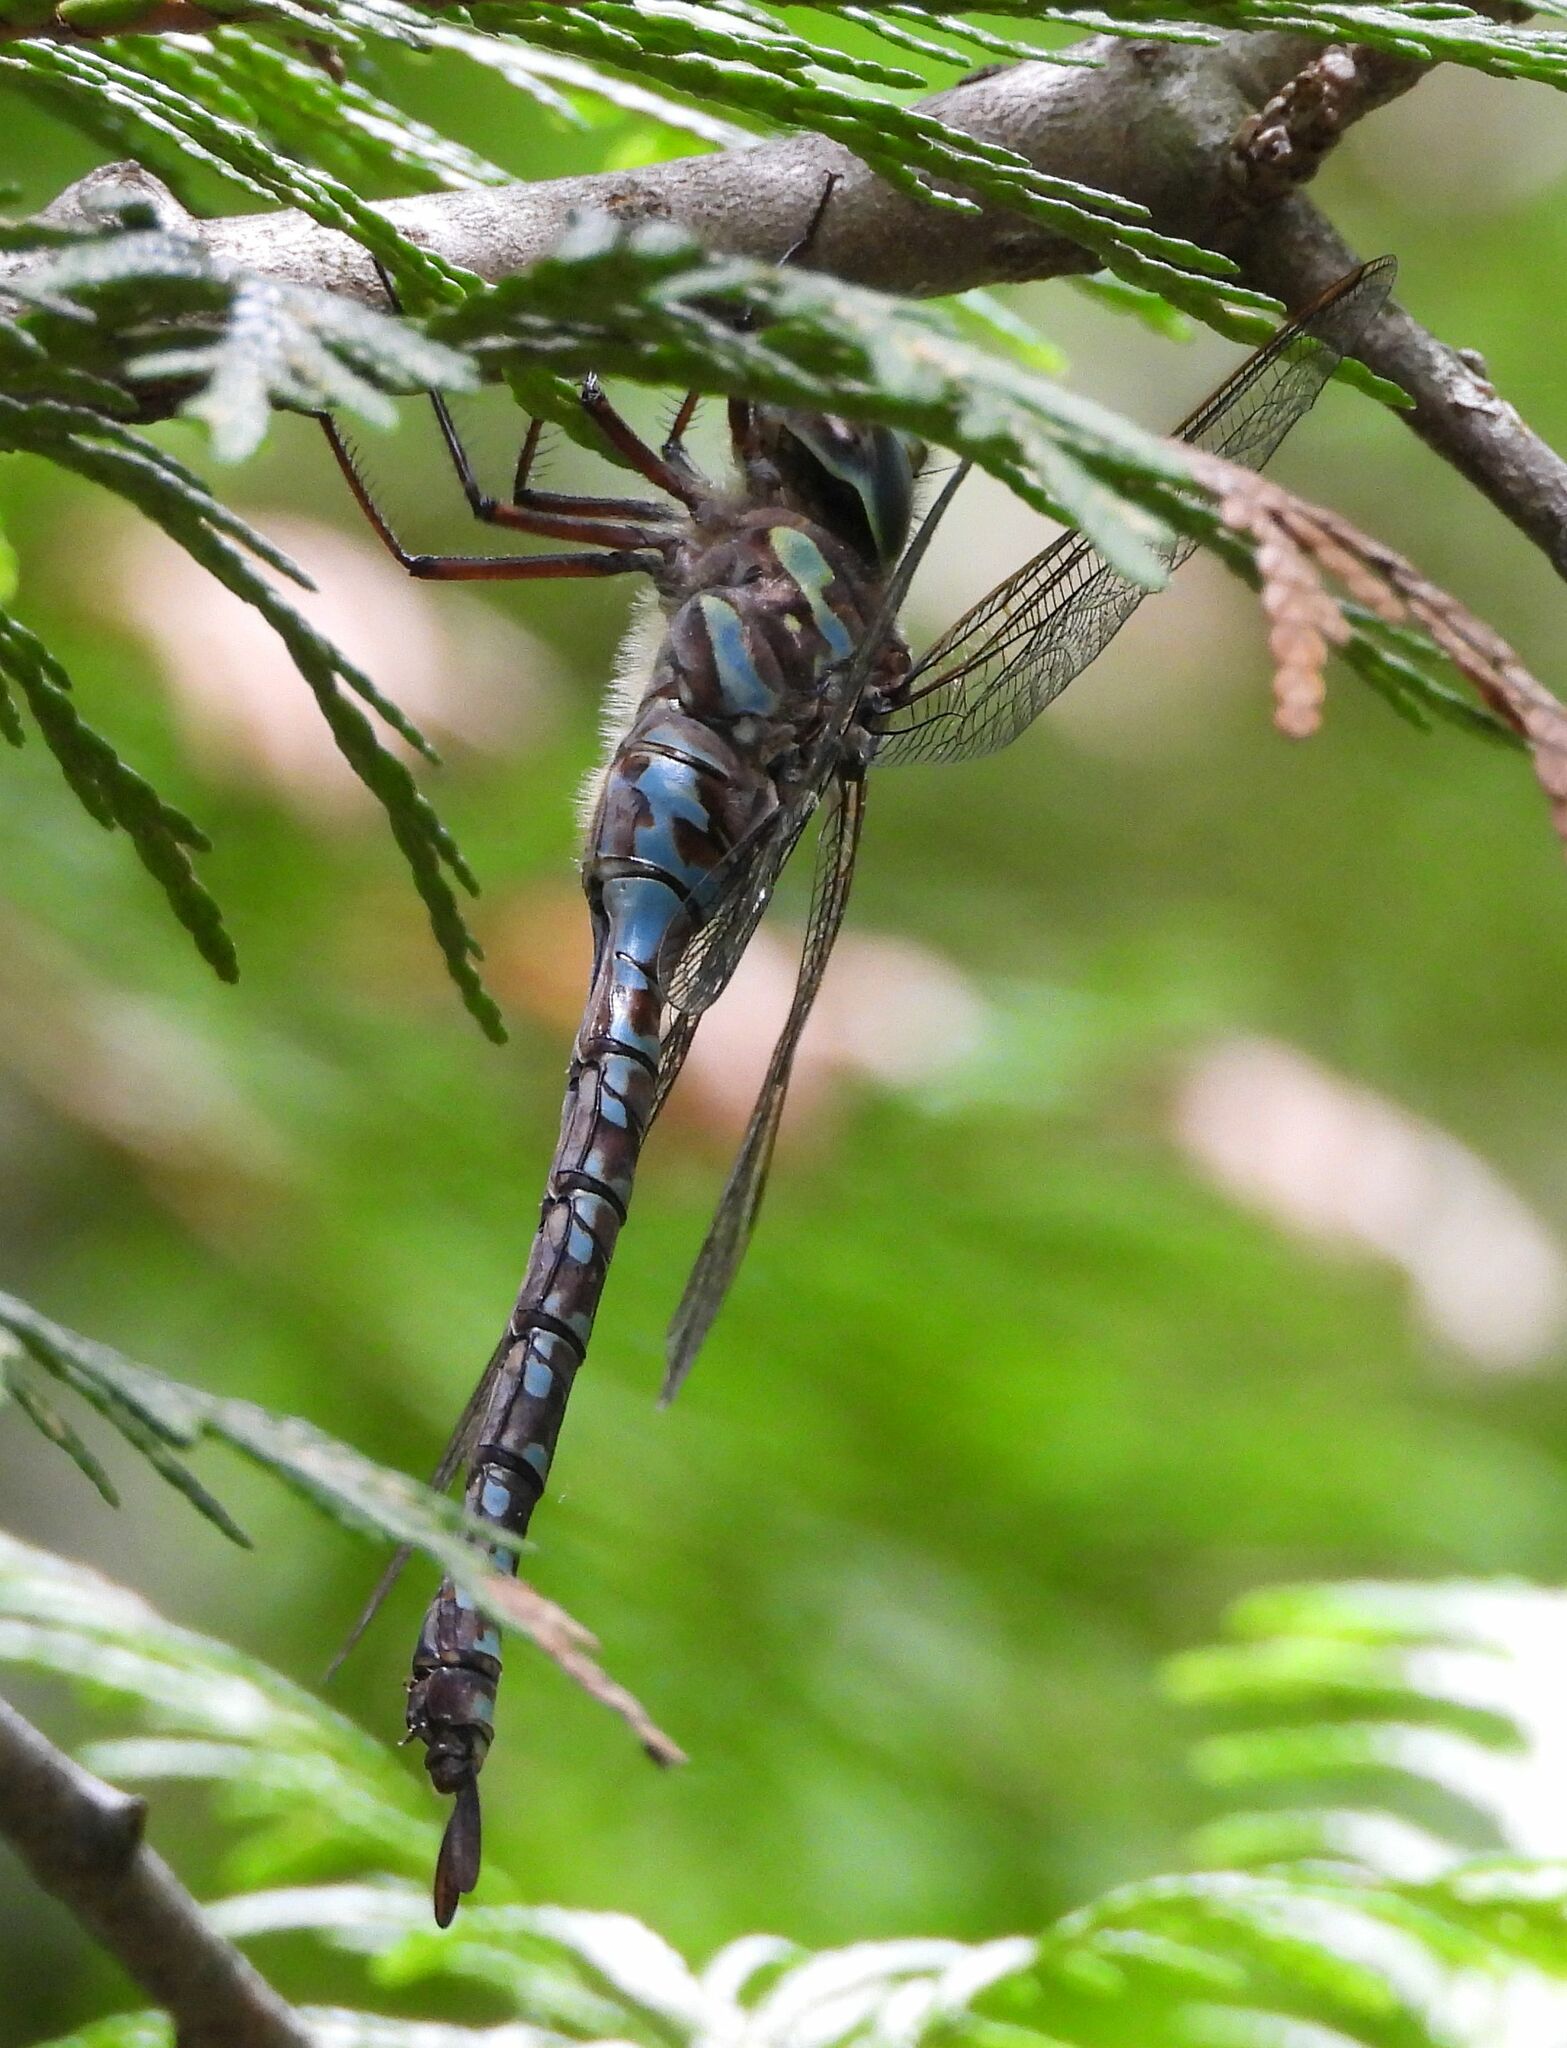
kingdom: Animalia
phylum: Arthropoda
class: Insecta
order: Odonata
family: Aeshnidae
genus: Aeshna
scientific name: Aeshna canadensis
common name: Canada darner
